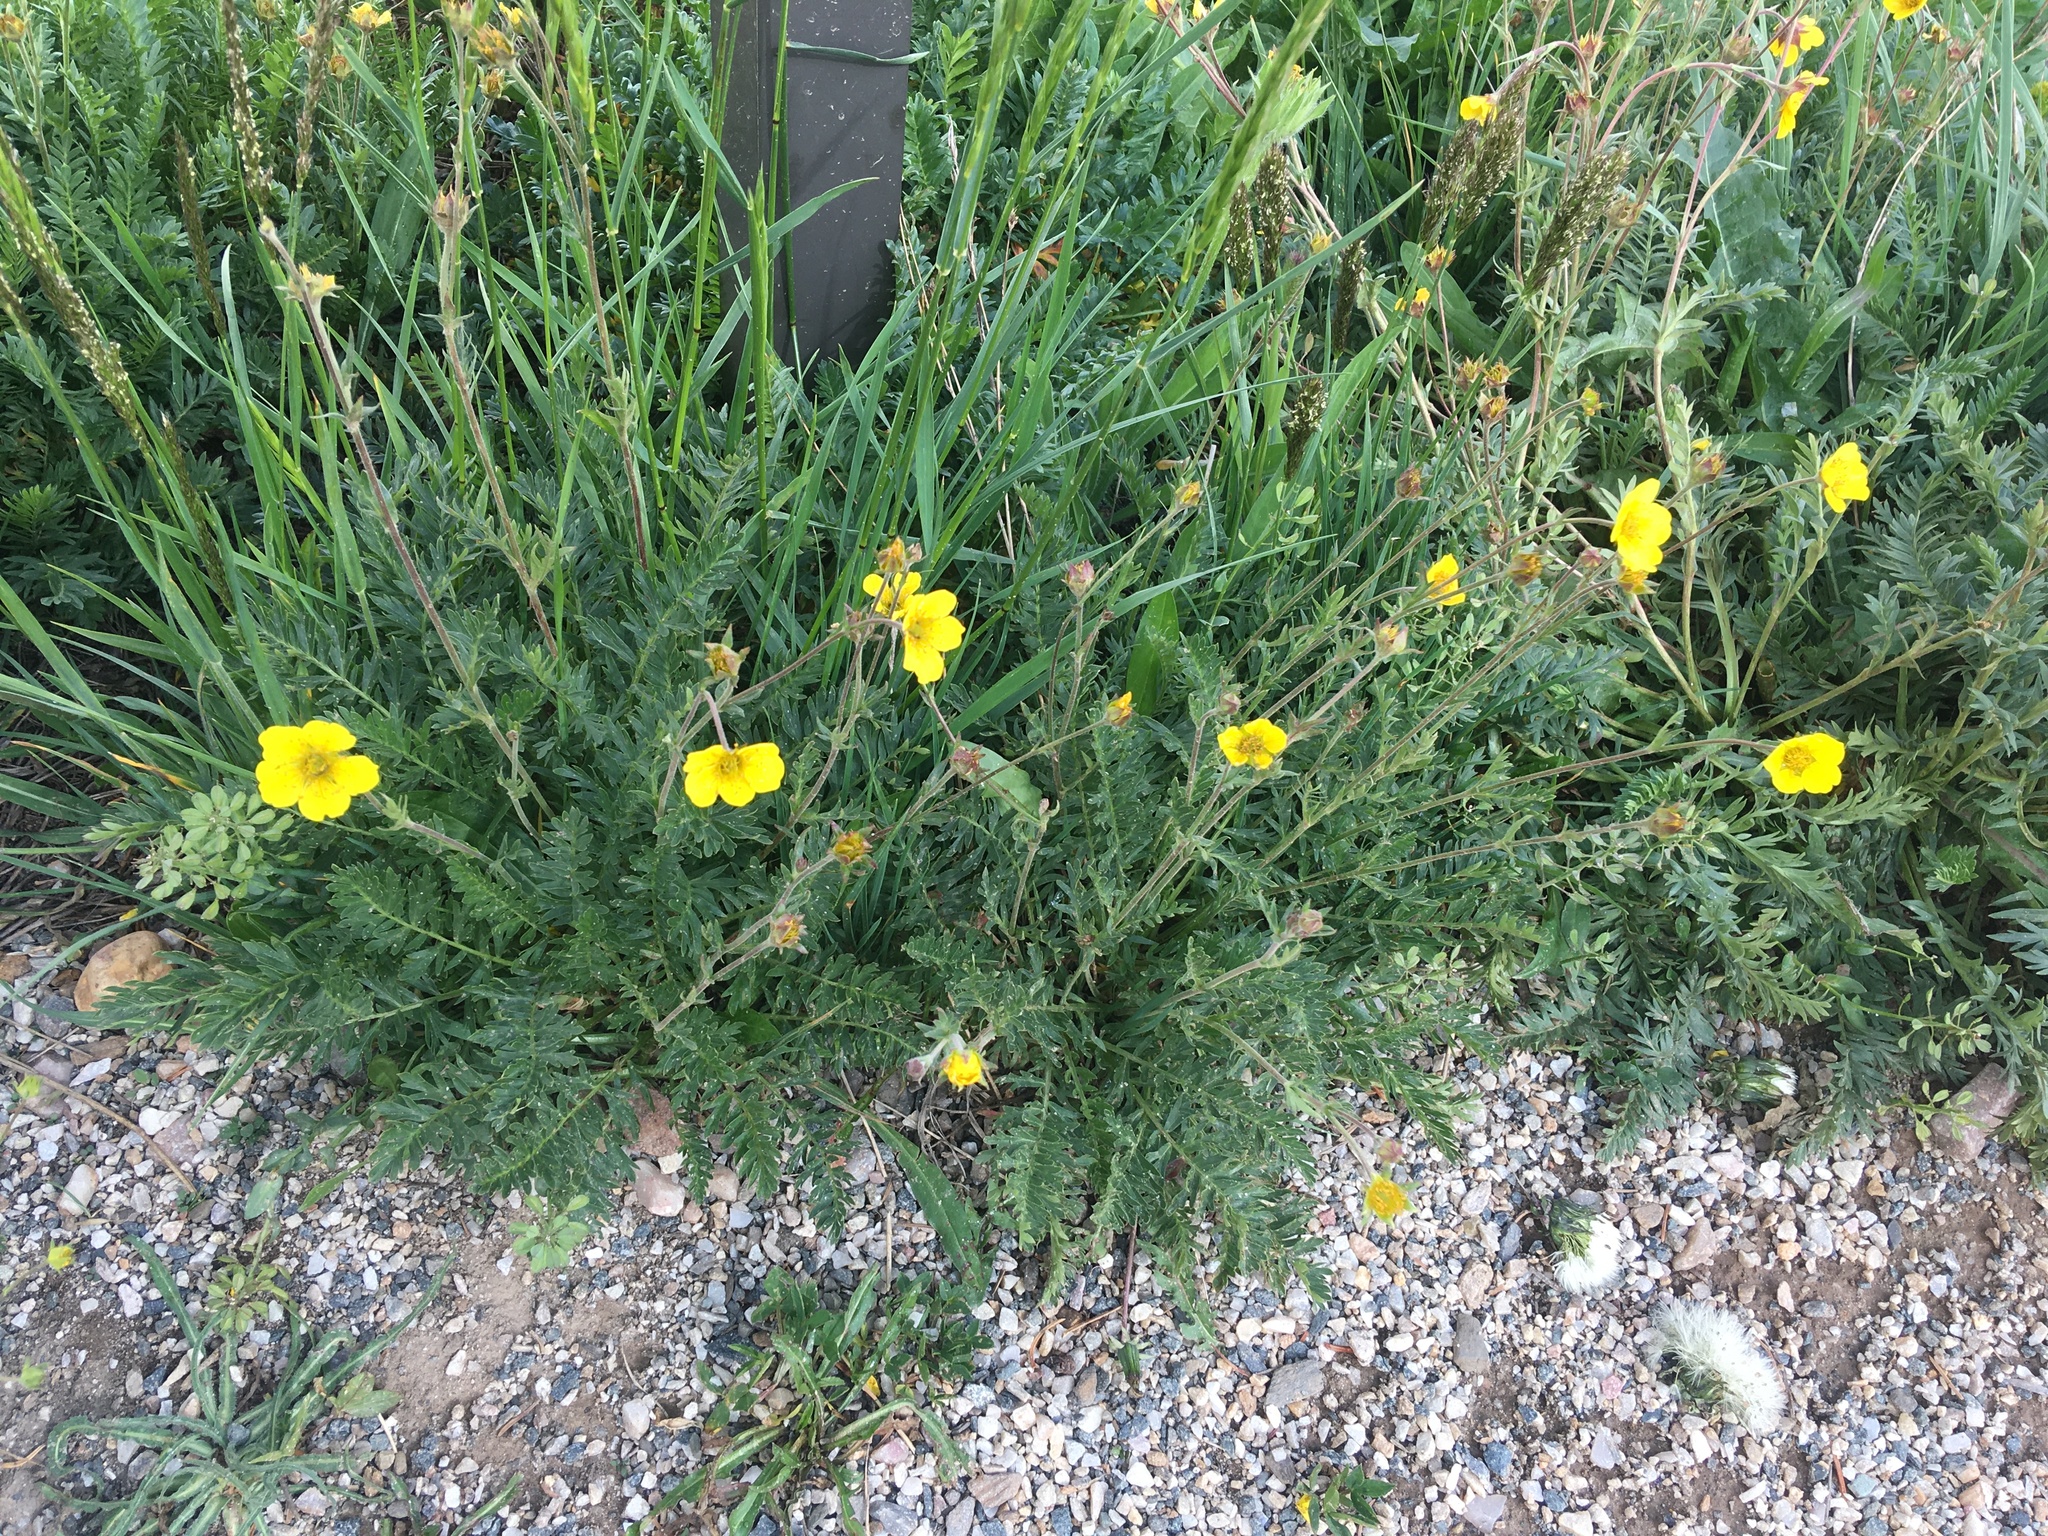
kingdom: Plantae
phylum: Tracheophyta
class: Magnoliopsida
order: Rosales
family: Rosaceae
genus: Geum
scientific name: Geum rossii
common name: Alpine avens
